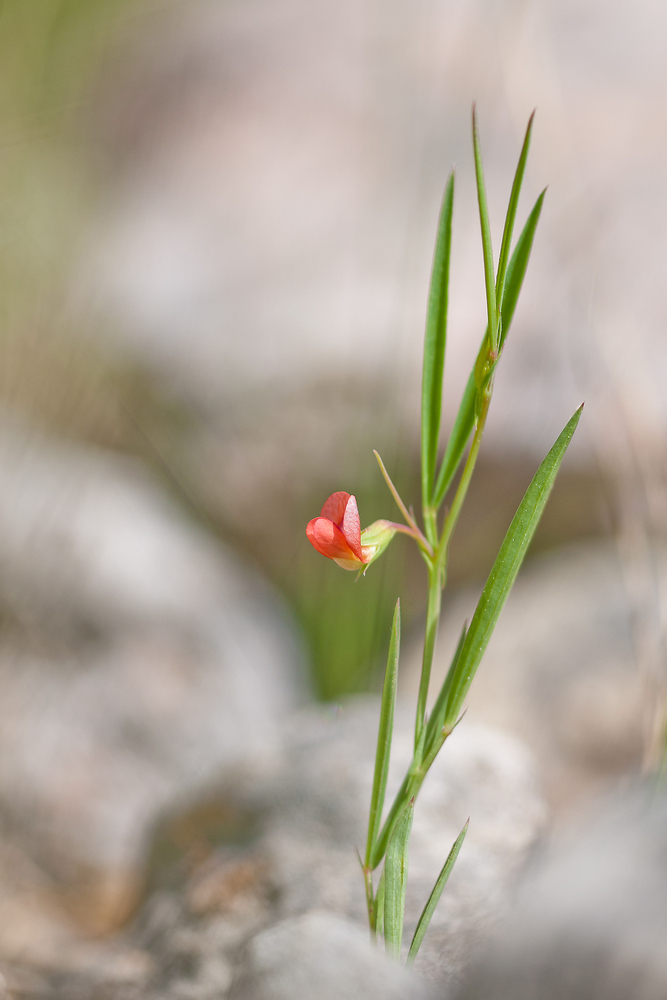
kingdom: Plantae
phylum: Tracheophyta
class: Magnoliopsida
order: Fabales
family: Fabaceae
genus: Lathyrus
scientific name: Lathyrus sphaericus
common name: Grass pea
